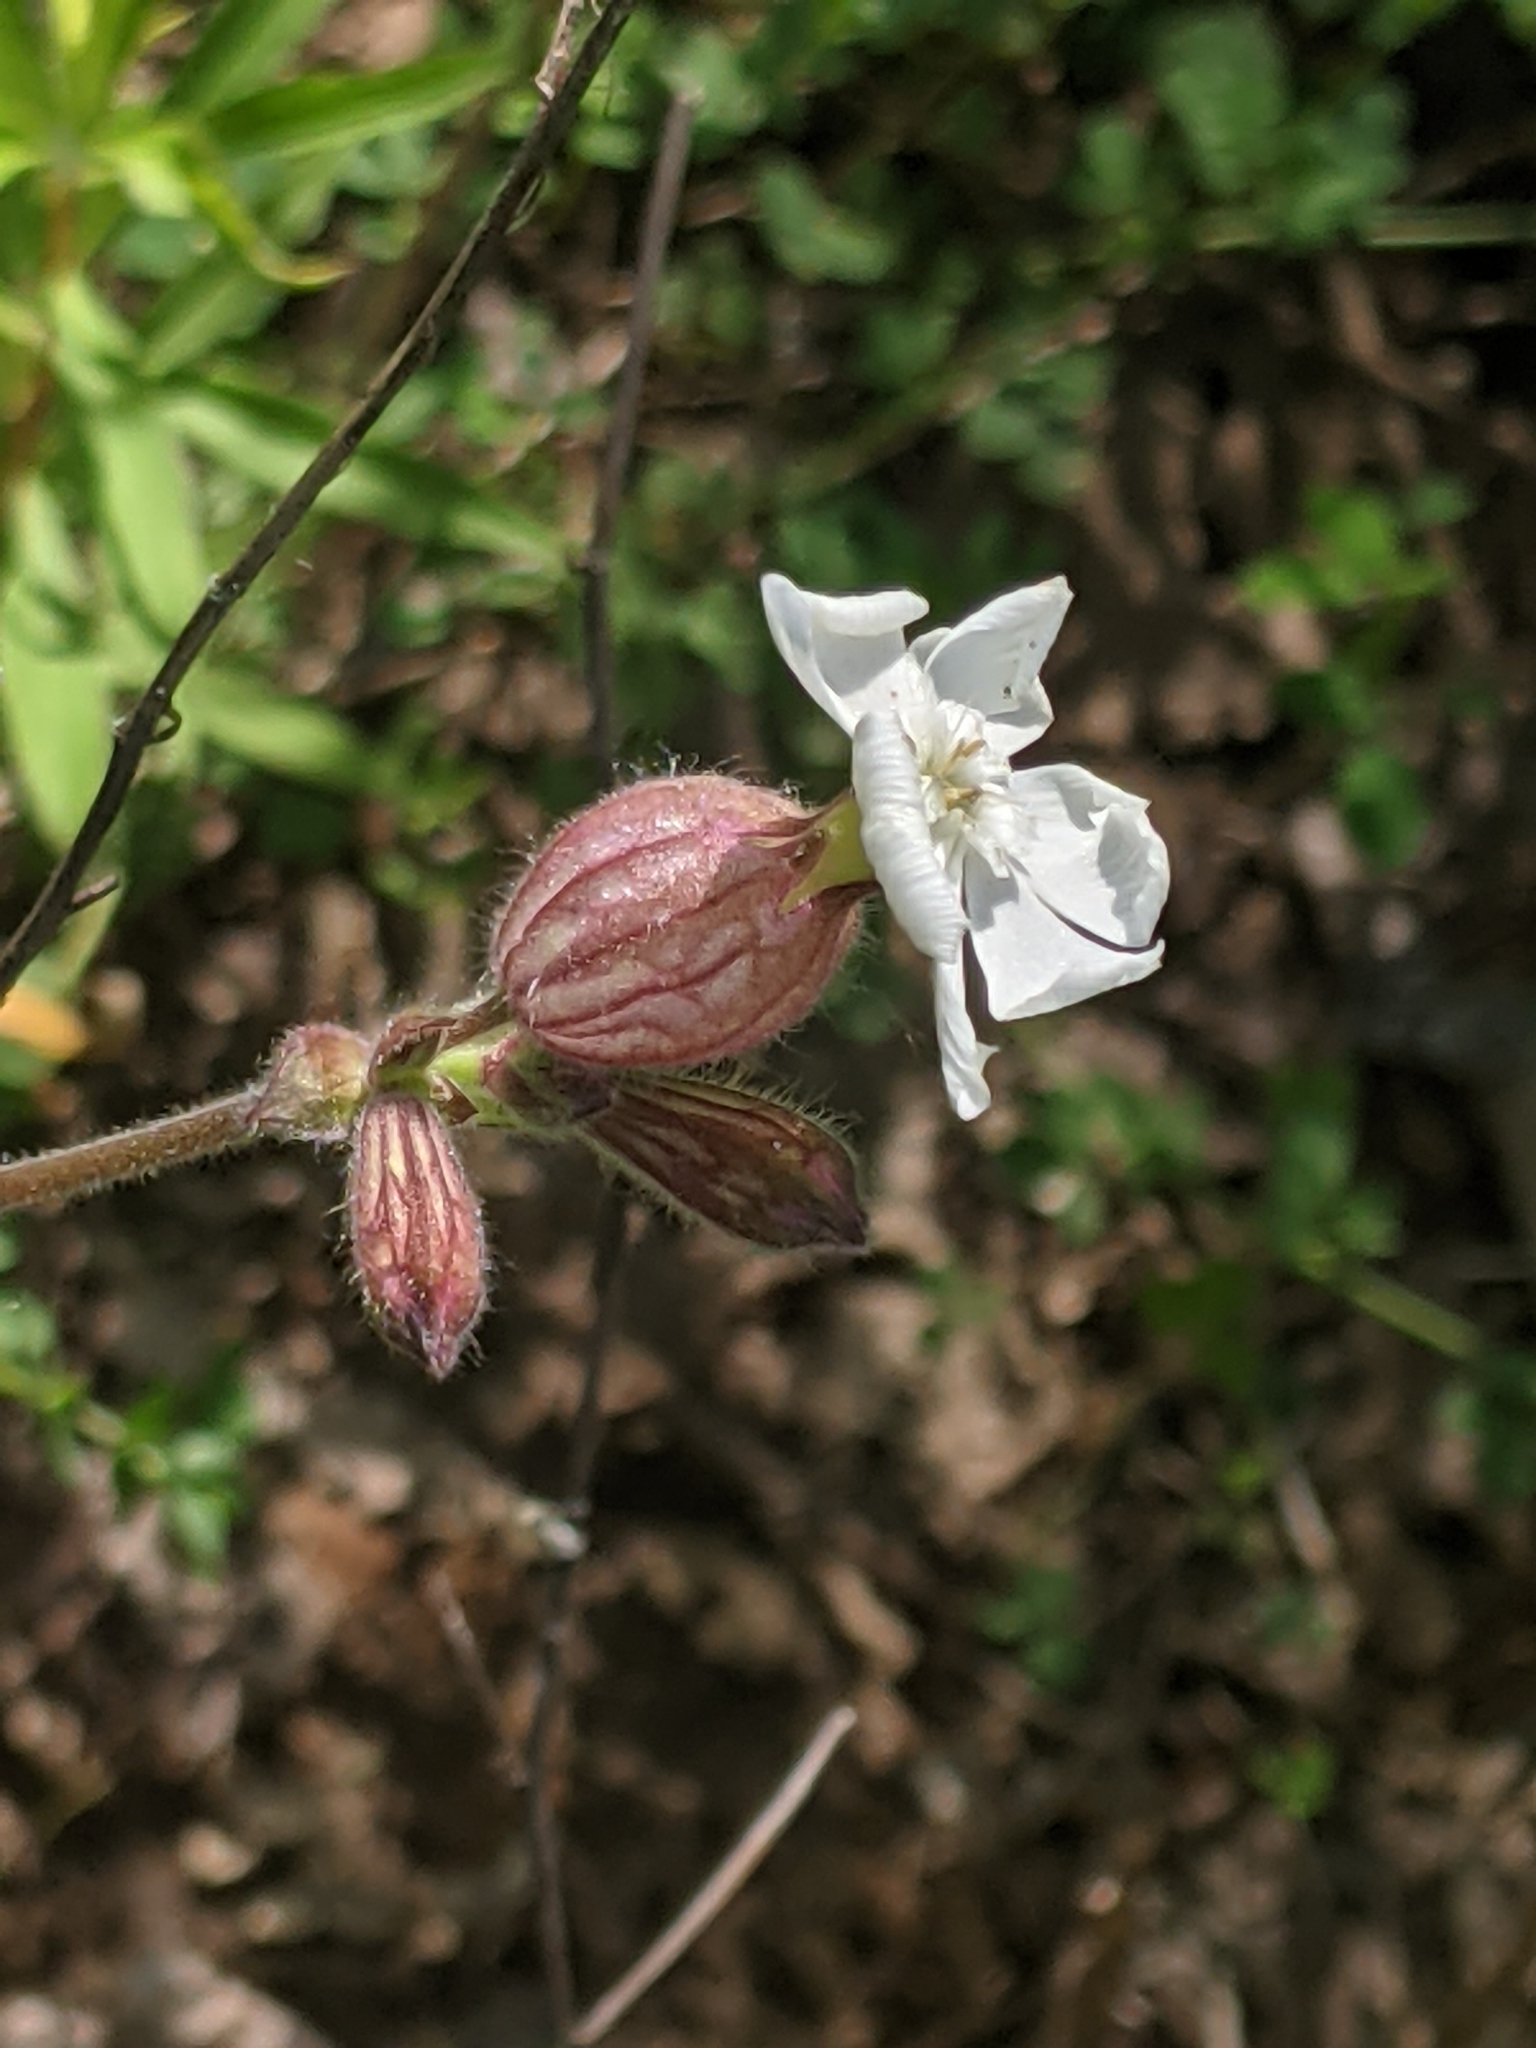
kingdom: Plantae
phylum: Tracheophyta
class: Magnoliopsida
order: Caryophyllales
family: Caryophyllaceae
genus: Silene
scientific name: Silene latifolia
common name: White campion
